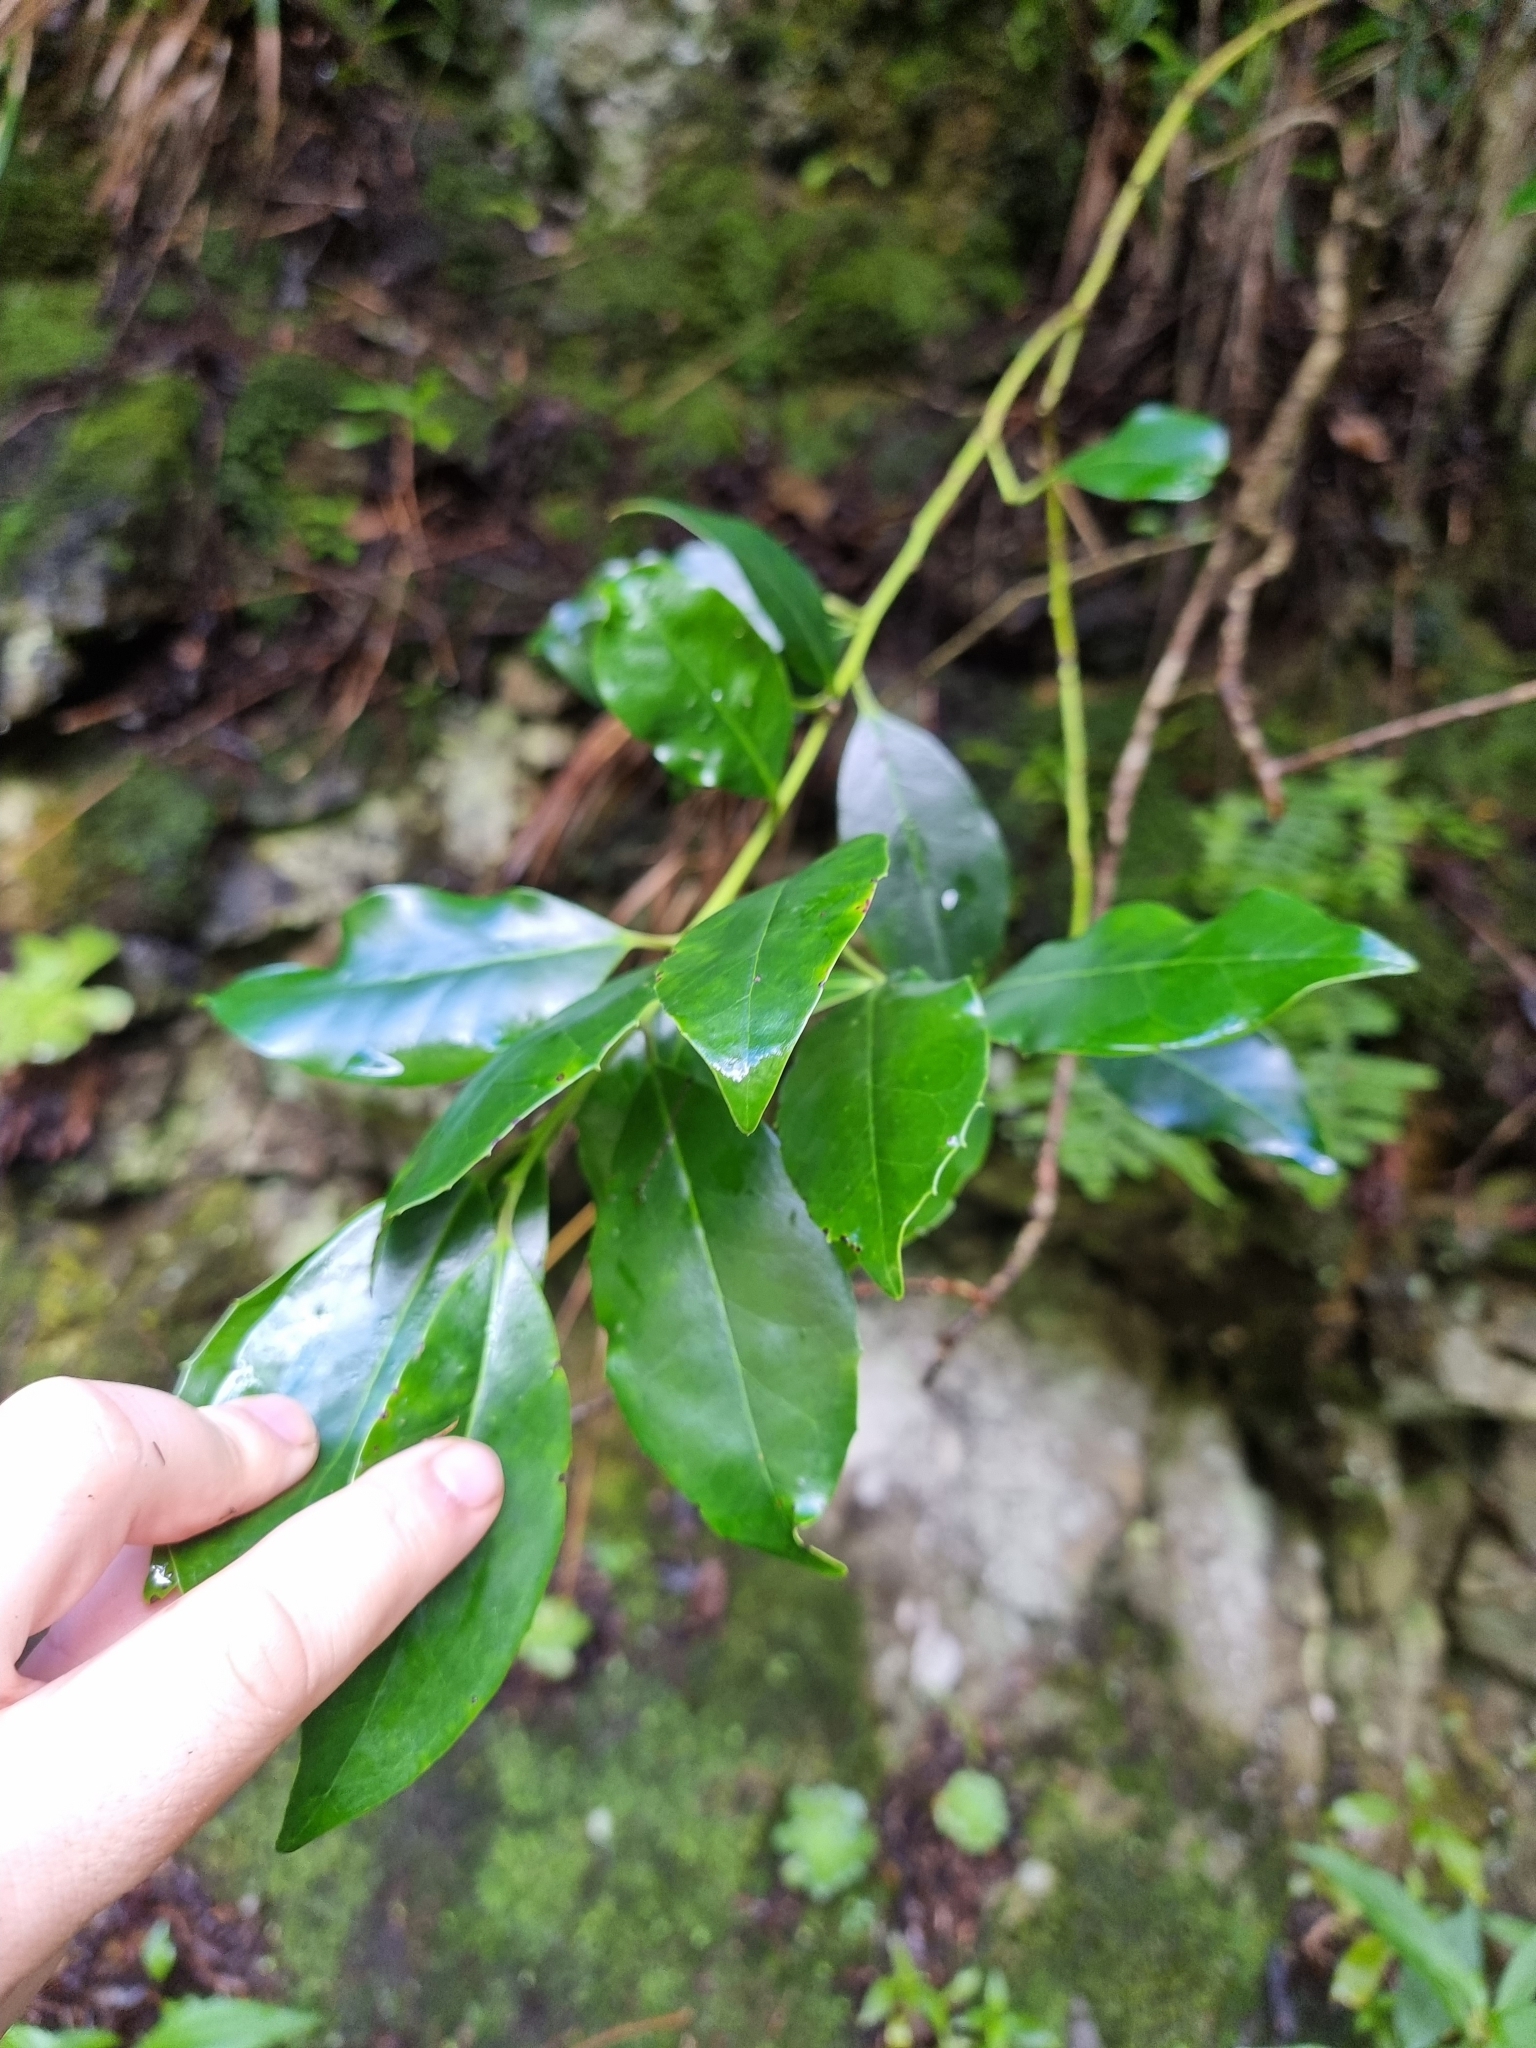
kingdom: Plantae
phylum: Tracheophyta
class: Magnoliopsida
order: Aquifoliales
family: Aquifoliaceae
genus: Ilex
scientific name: Ilex canariensis
